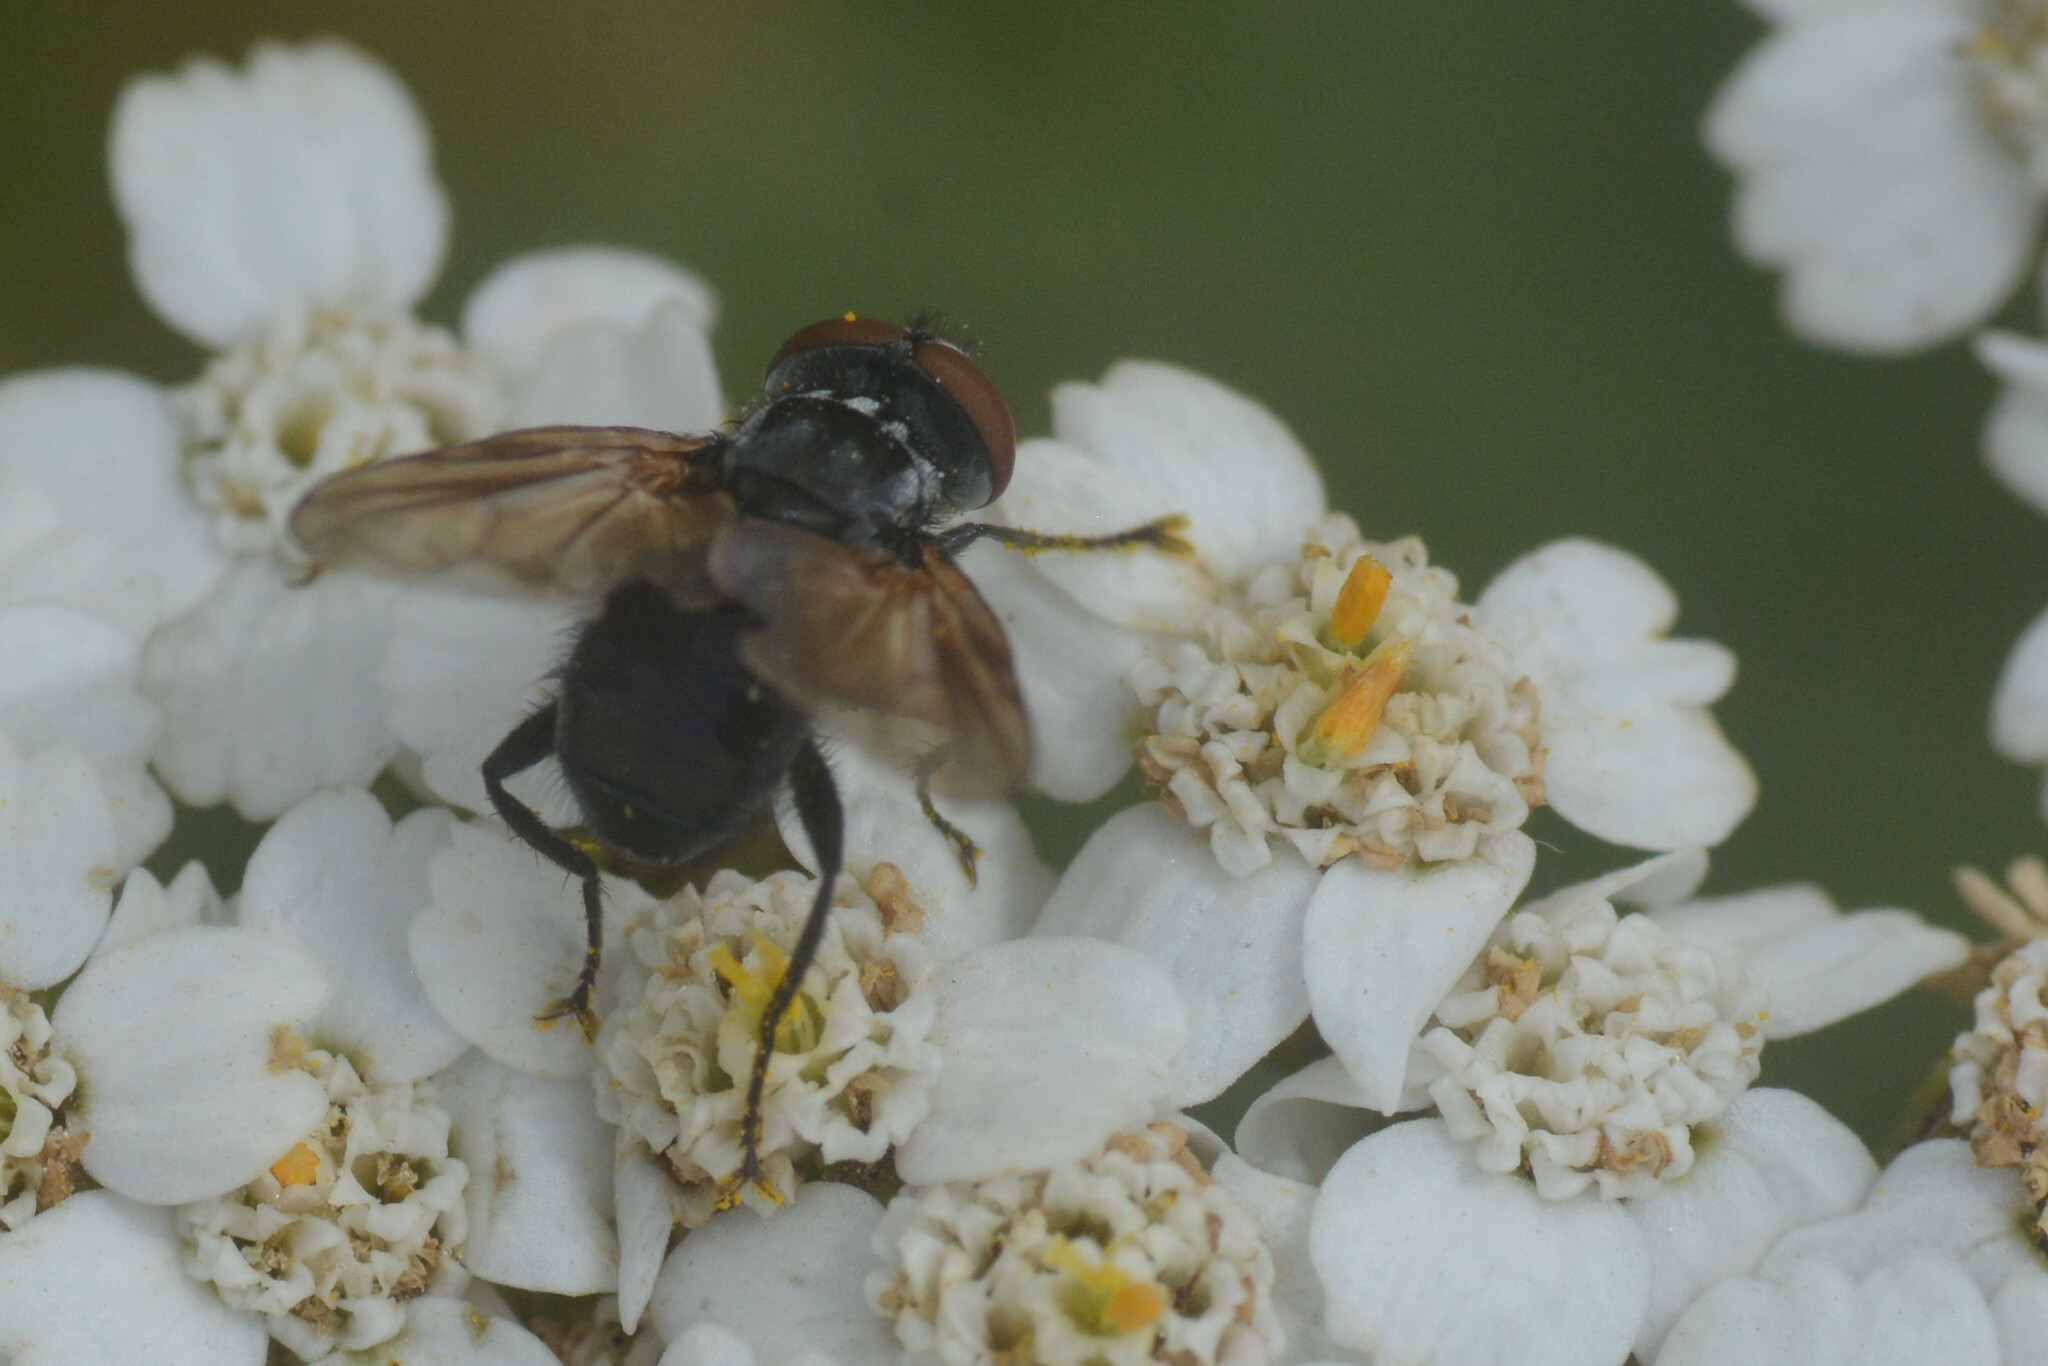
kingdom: Animalia
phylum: Arthropoda
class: Insecta
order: Diptera
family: Tachinidae
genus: Phasia
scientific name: Phasia obesa
